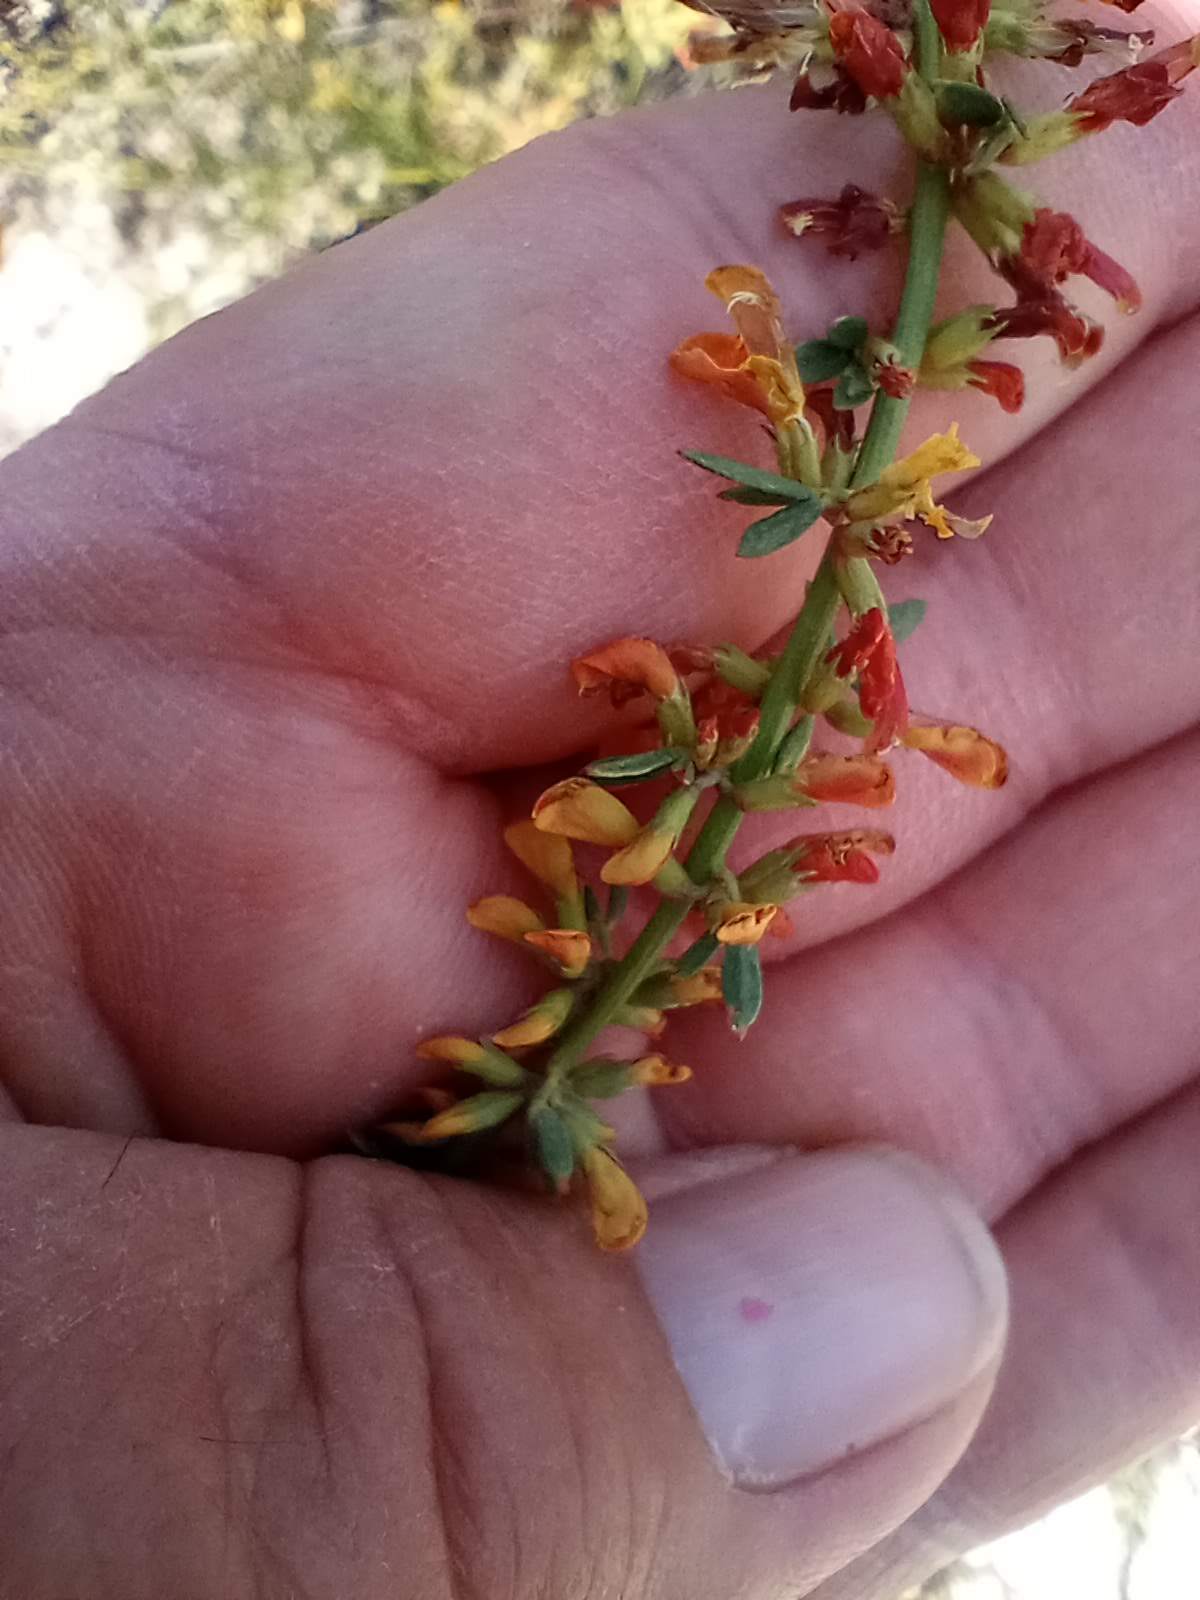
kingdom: Plantae
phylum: Tracheophyta
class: Magnoliopsida
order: Fabales
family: Fabaceae
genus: Acmispon
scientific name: Acmispon glaber
